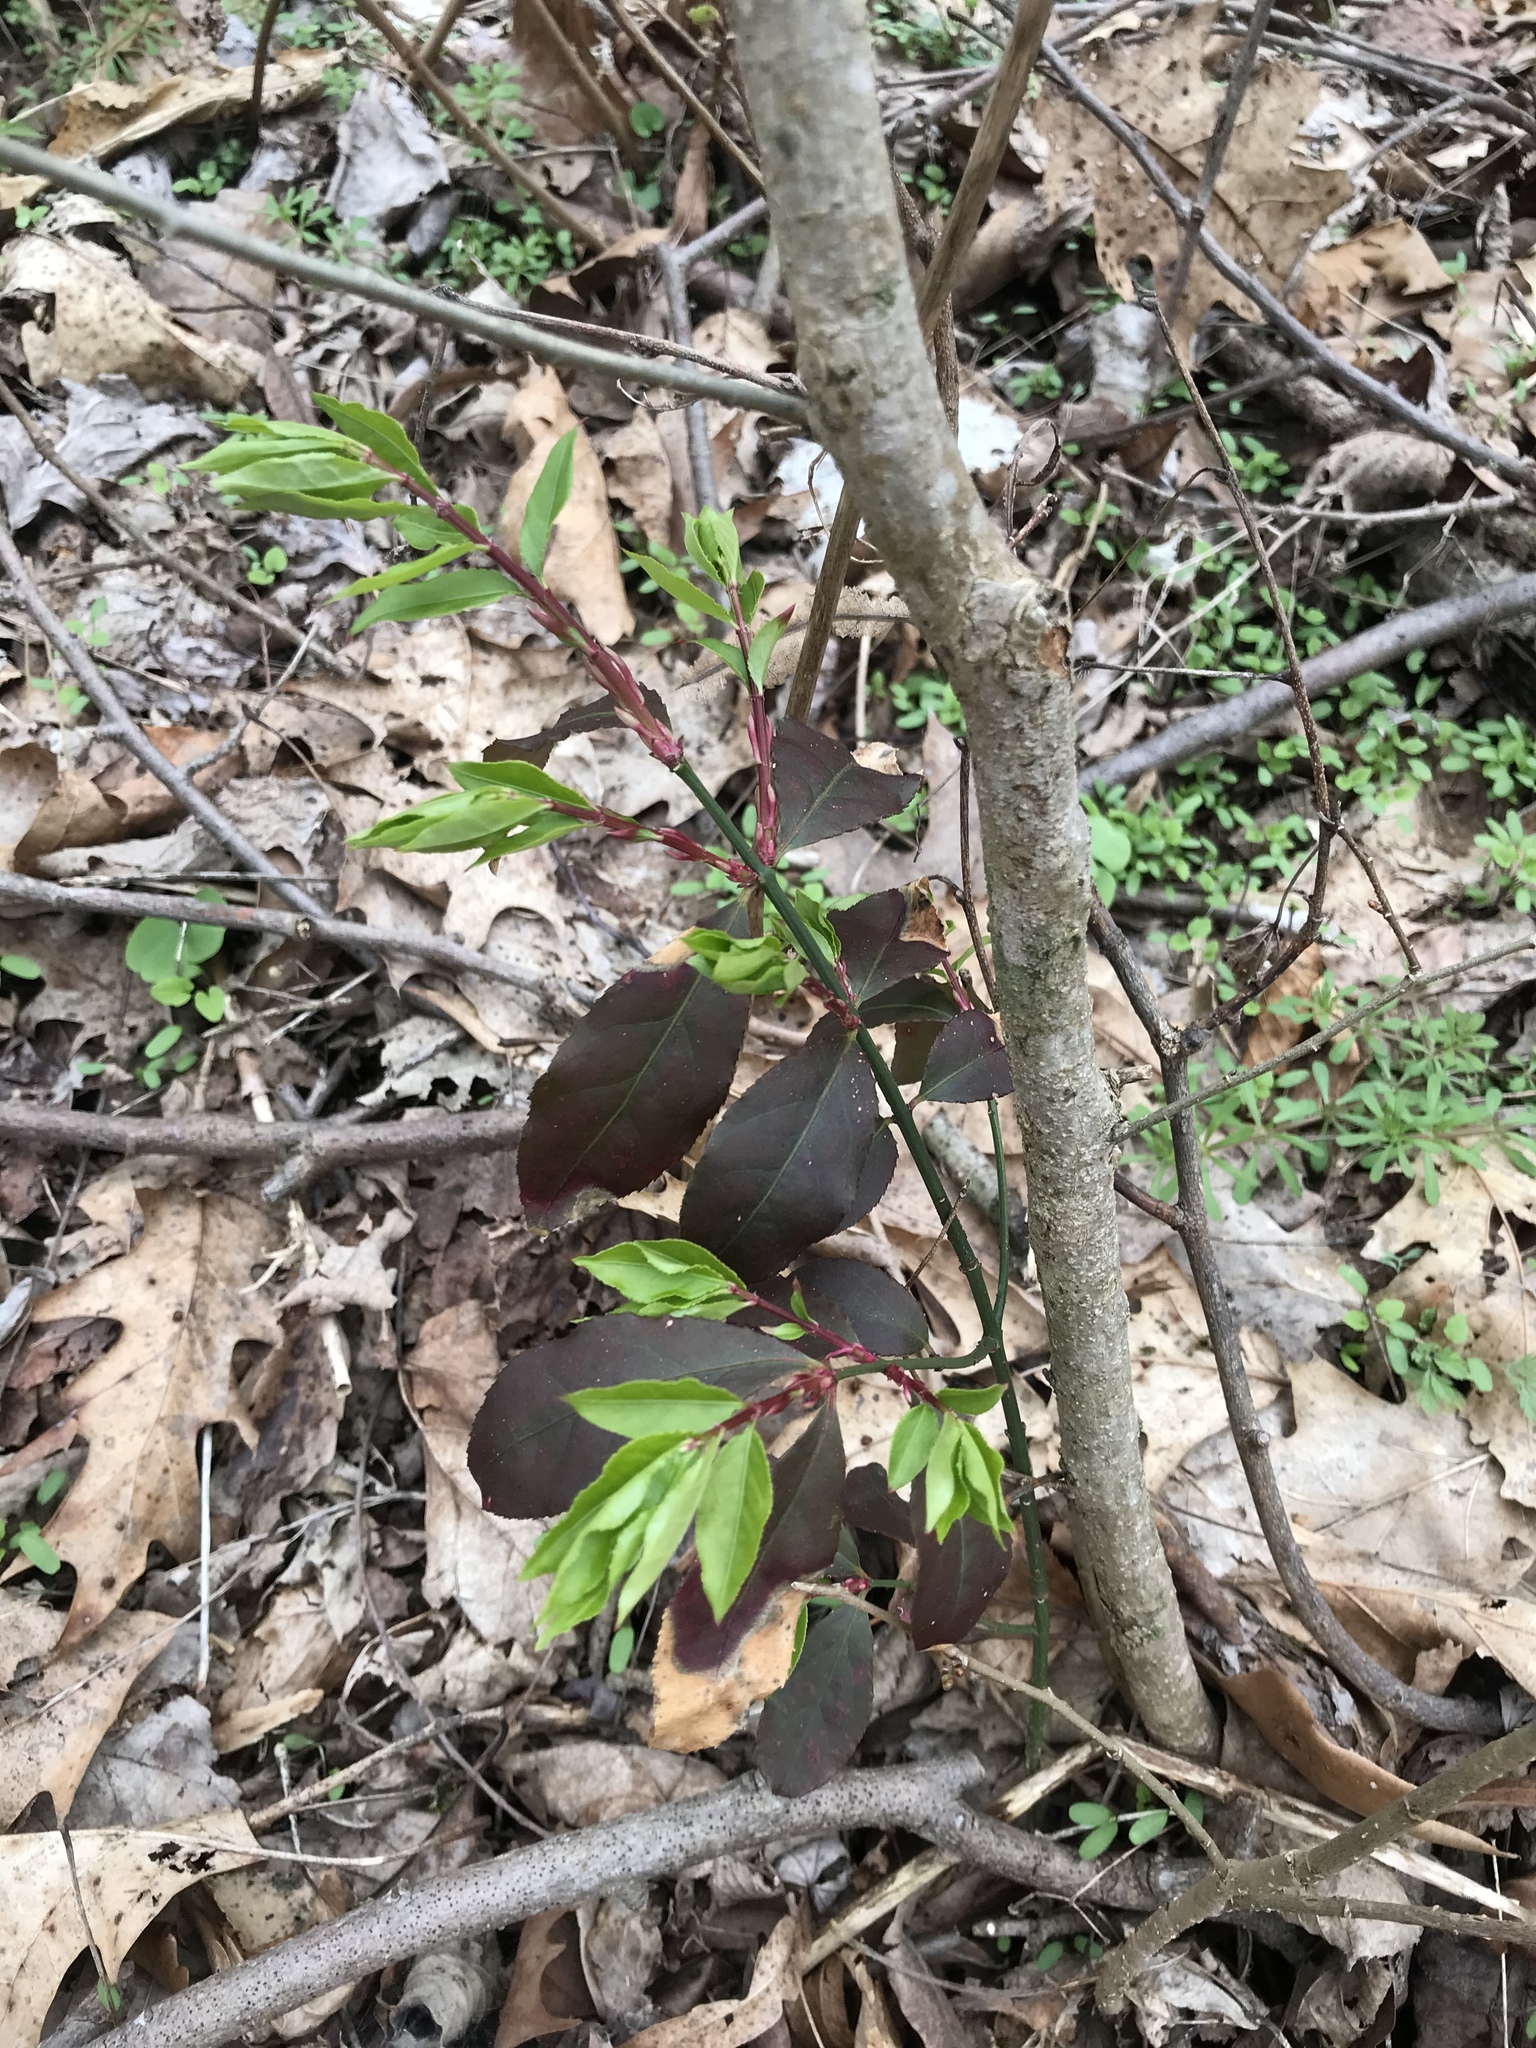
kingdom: Plantae
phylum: Tracheophyta
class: Magnoliopsida
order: Celastrales
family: Celastraceae
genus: Euonymus
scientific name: Euonymus alatus
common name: Winged euonymus
